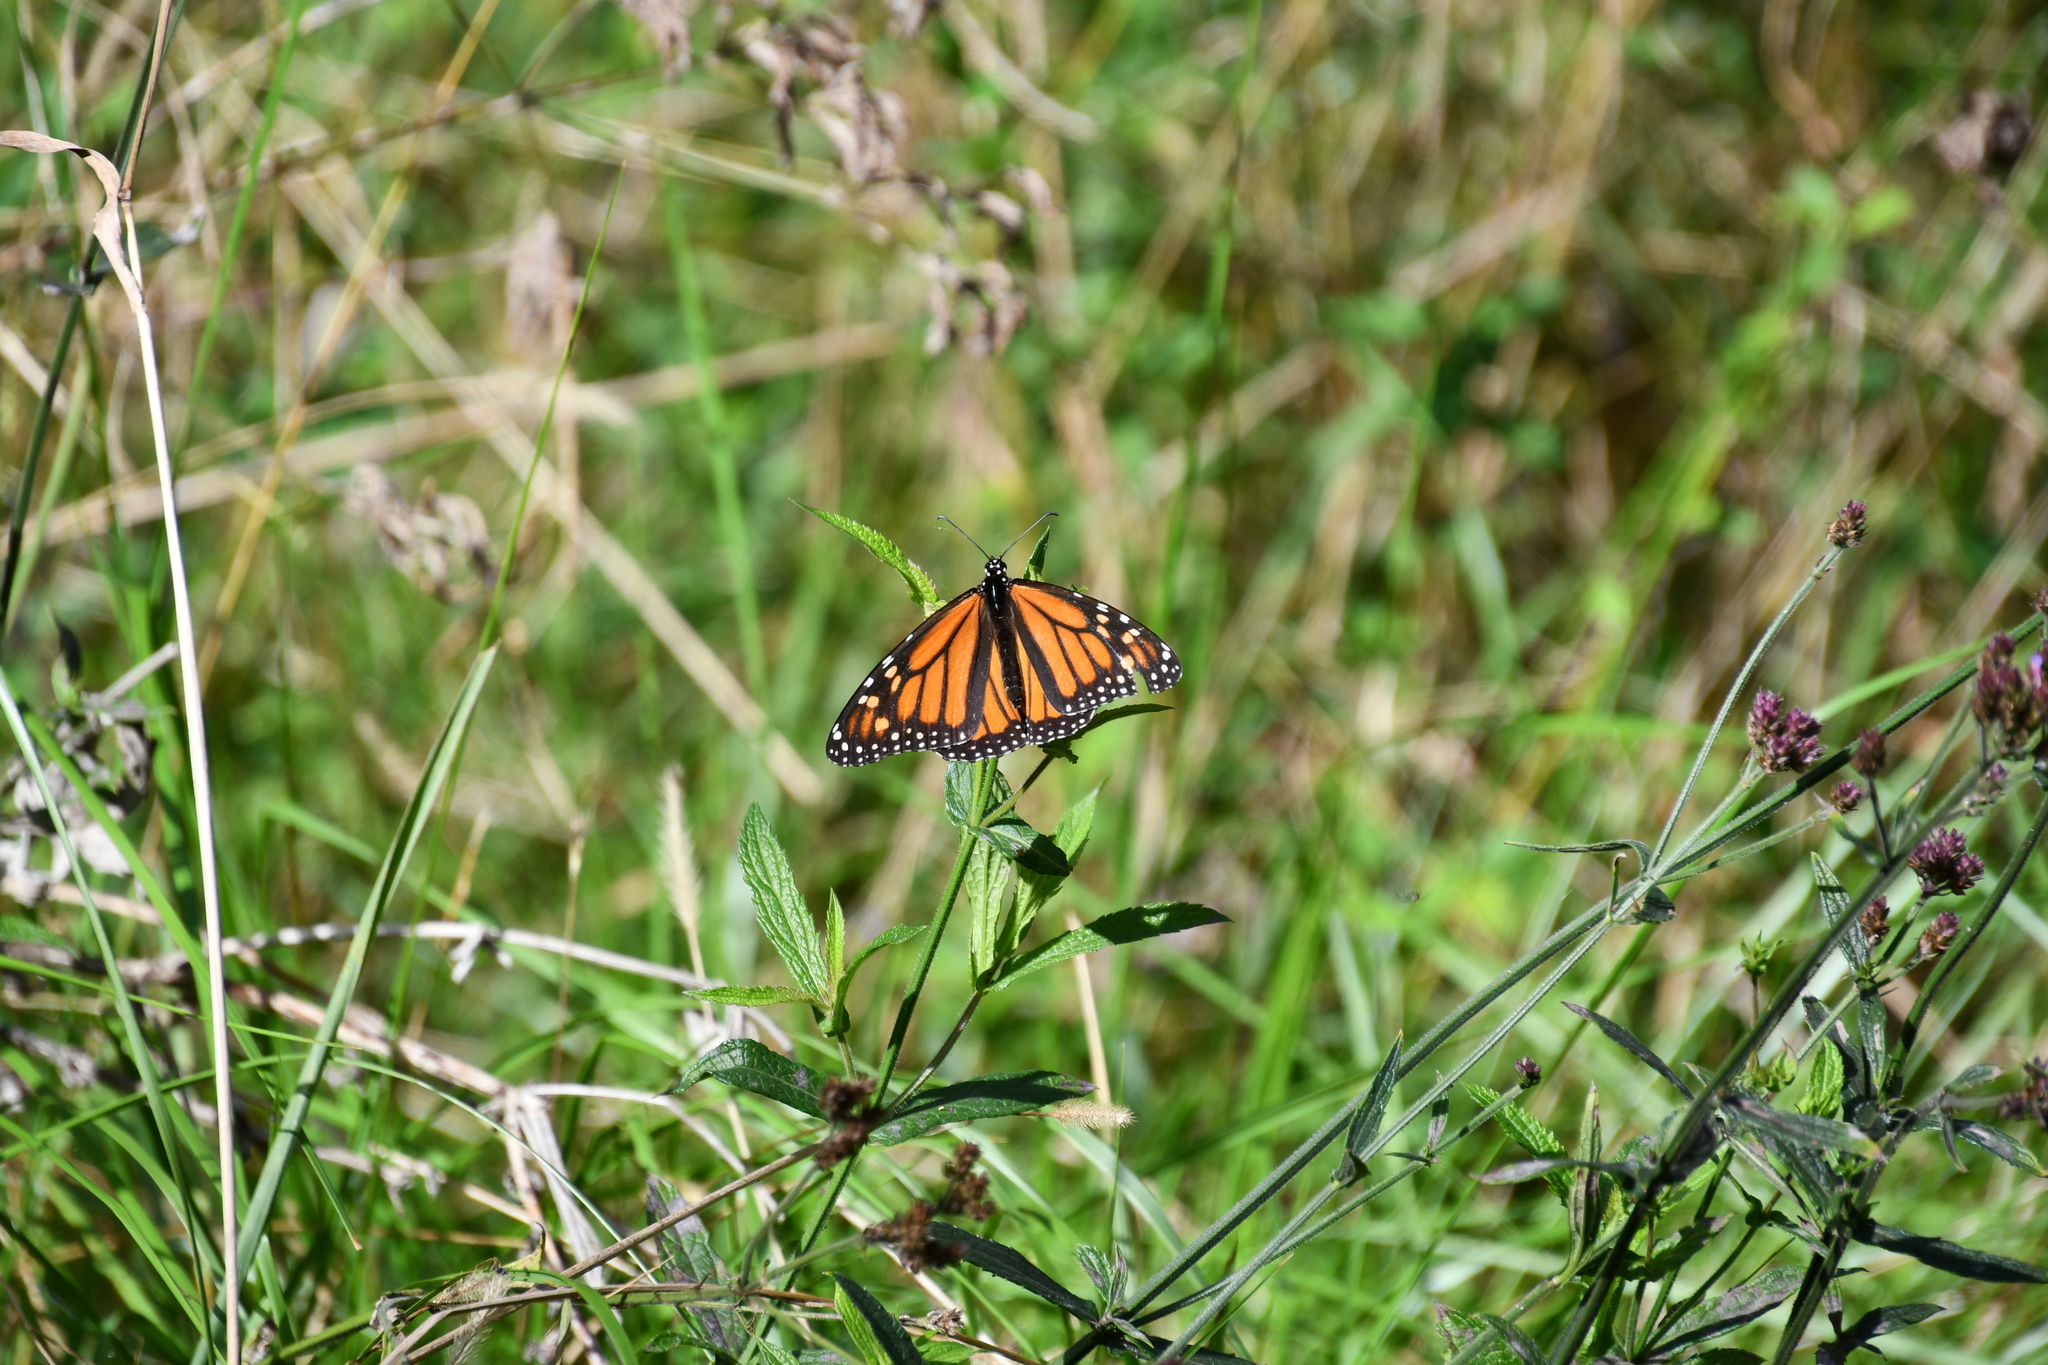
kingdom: Animalia
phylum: Arthropoda
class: Insecta
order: Lepidoptera
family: Nymphalidae
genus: Danaus
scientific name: Danaus plexippus
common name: Monarch
